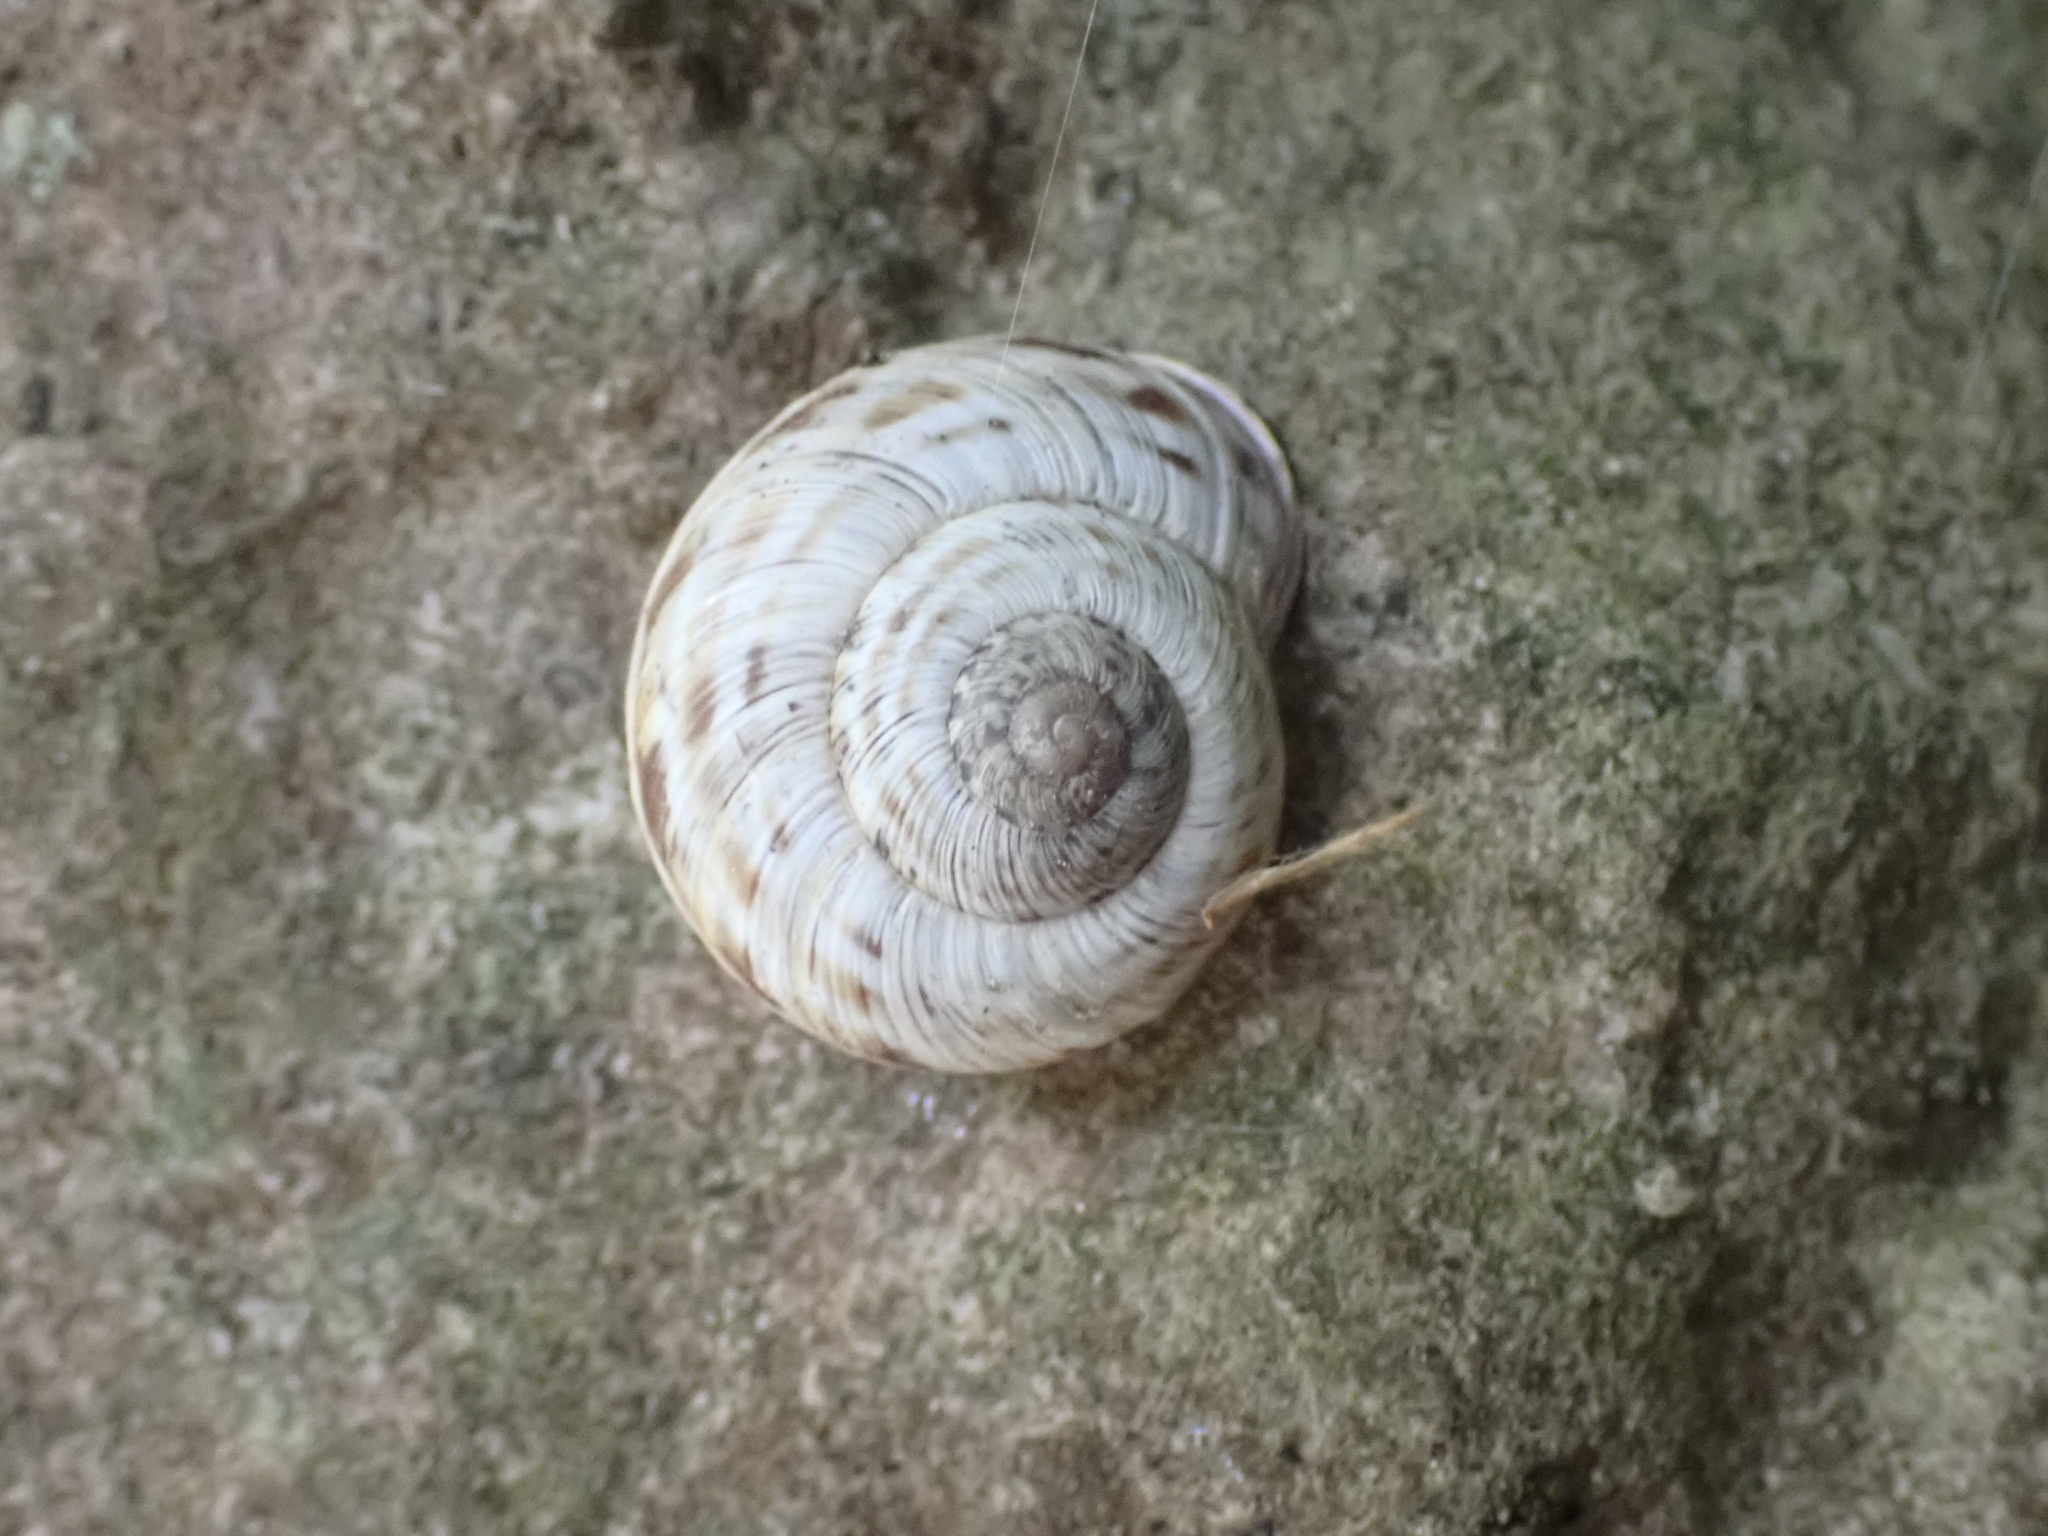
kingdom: Animalia
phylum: Mollusca
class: Gastropoda
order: Stylommatophora
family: Helicidae
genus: Macularia
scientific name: Macularia niciensis
